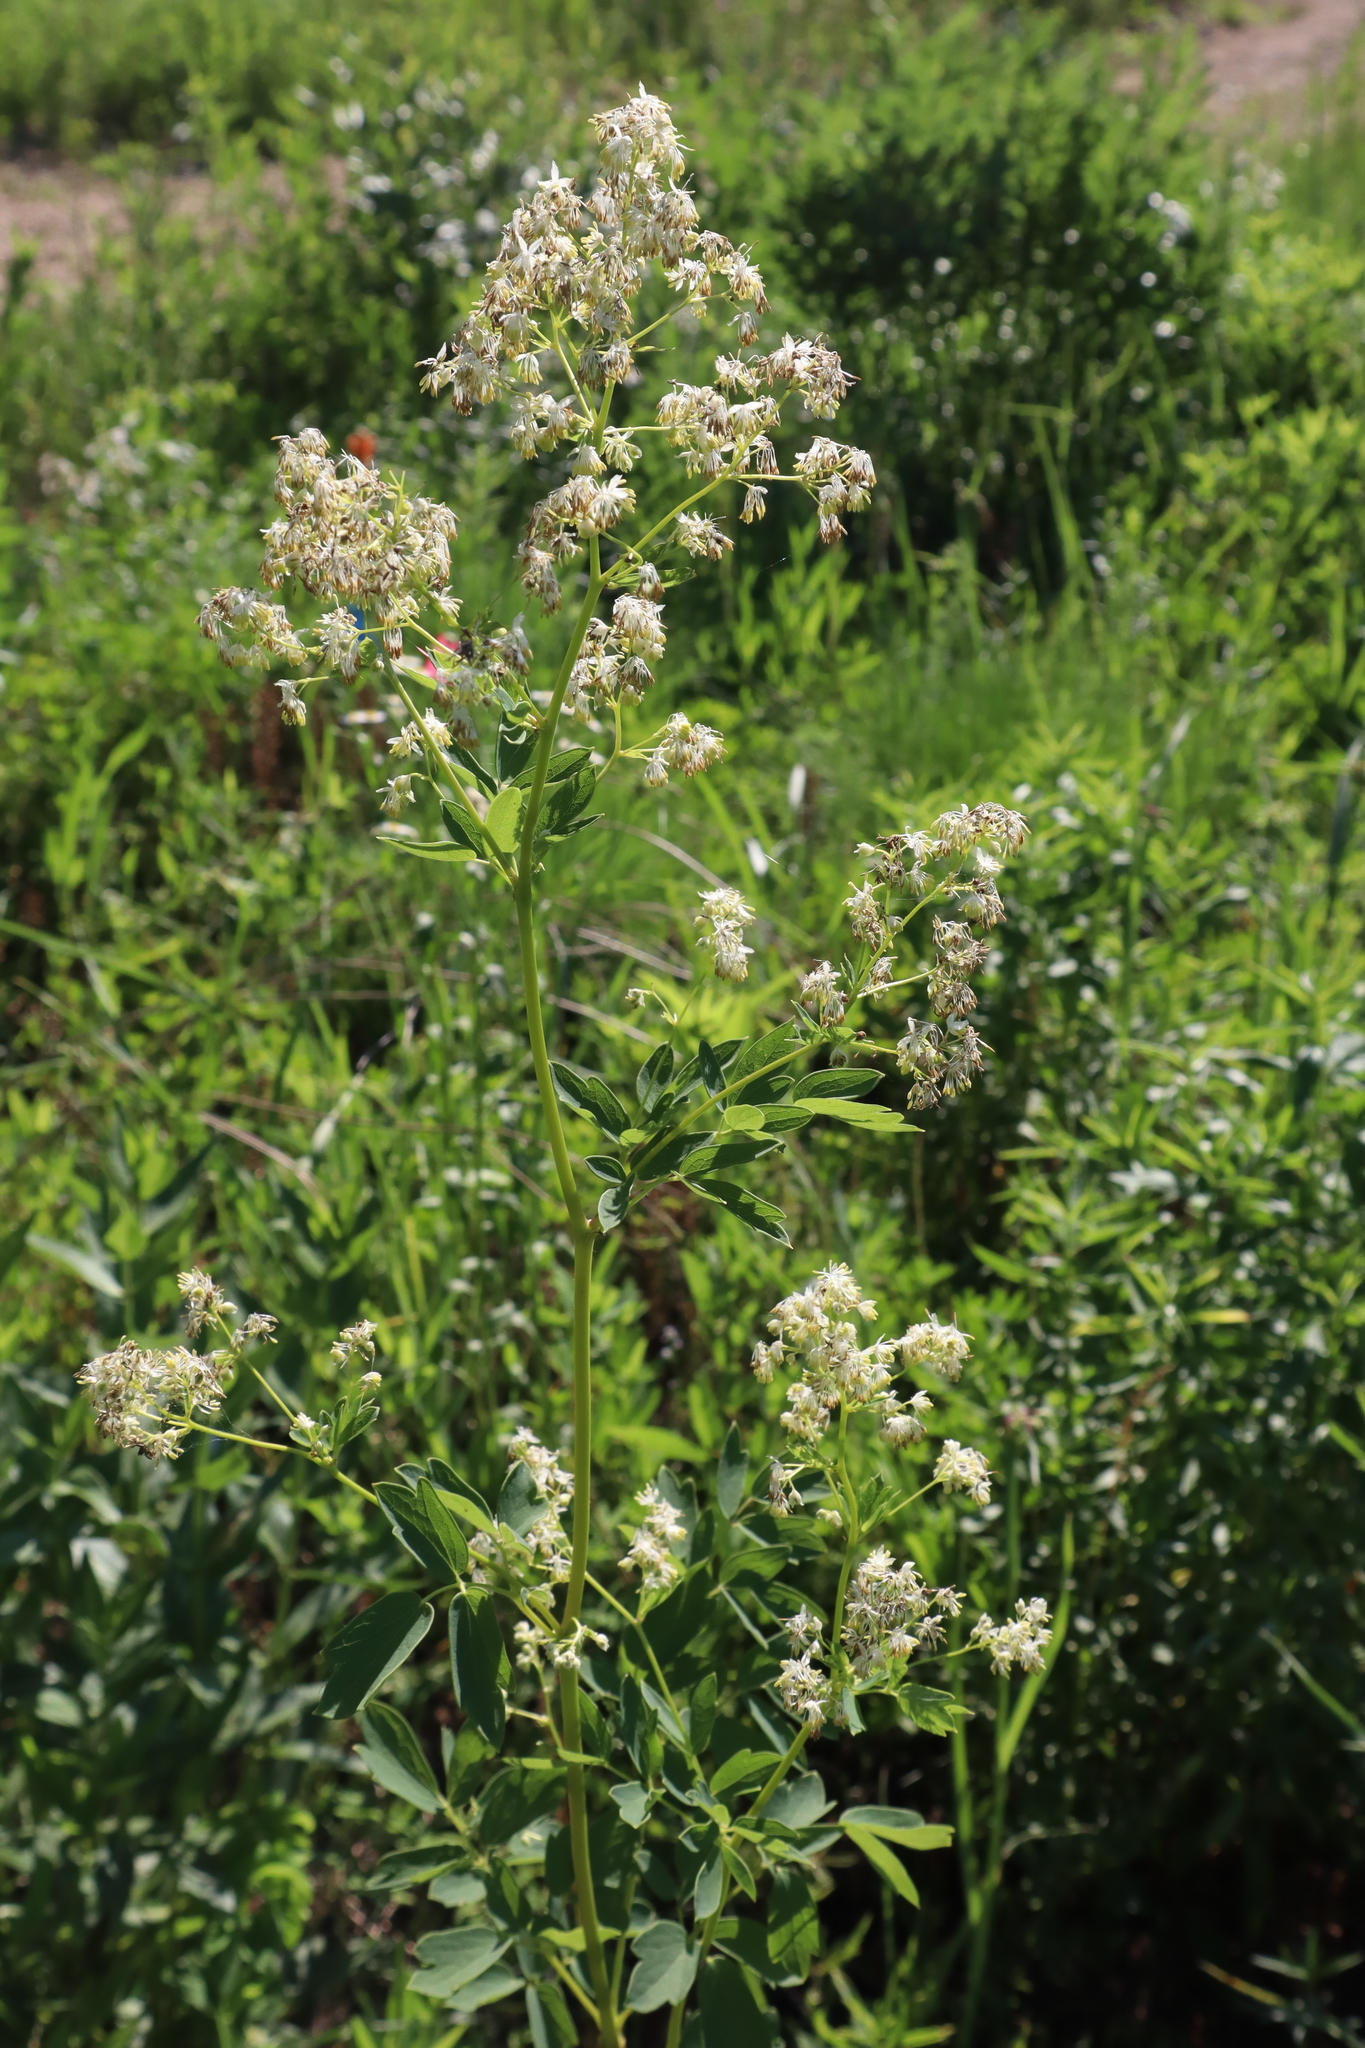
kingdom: Plantae
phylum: Tracheophyta
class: Magnoliopsida
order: Ranunculales
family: Ranunculaceae
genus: Thalictrum
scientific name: Thalictrum dasycarpum
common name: Purple meadow-rue
